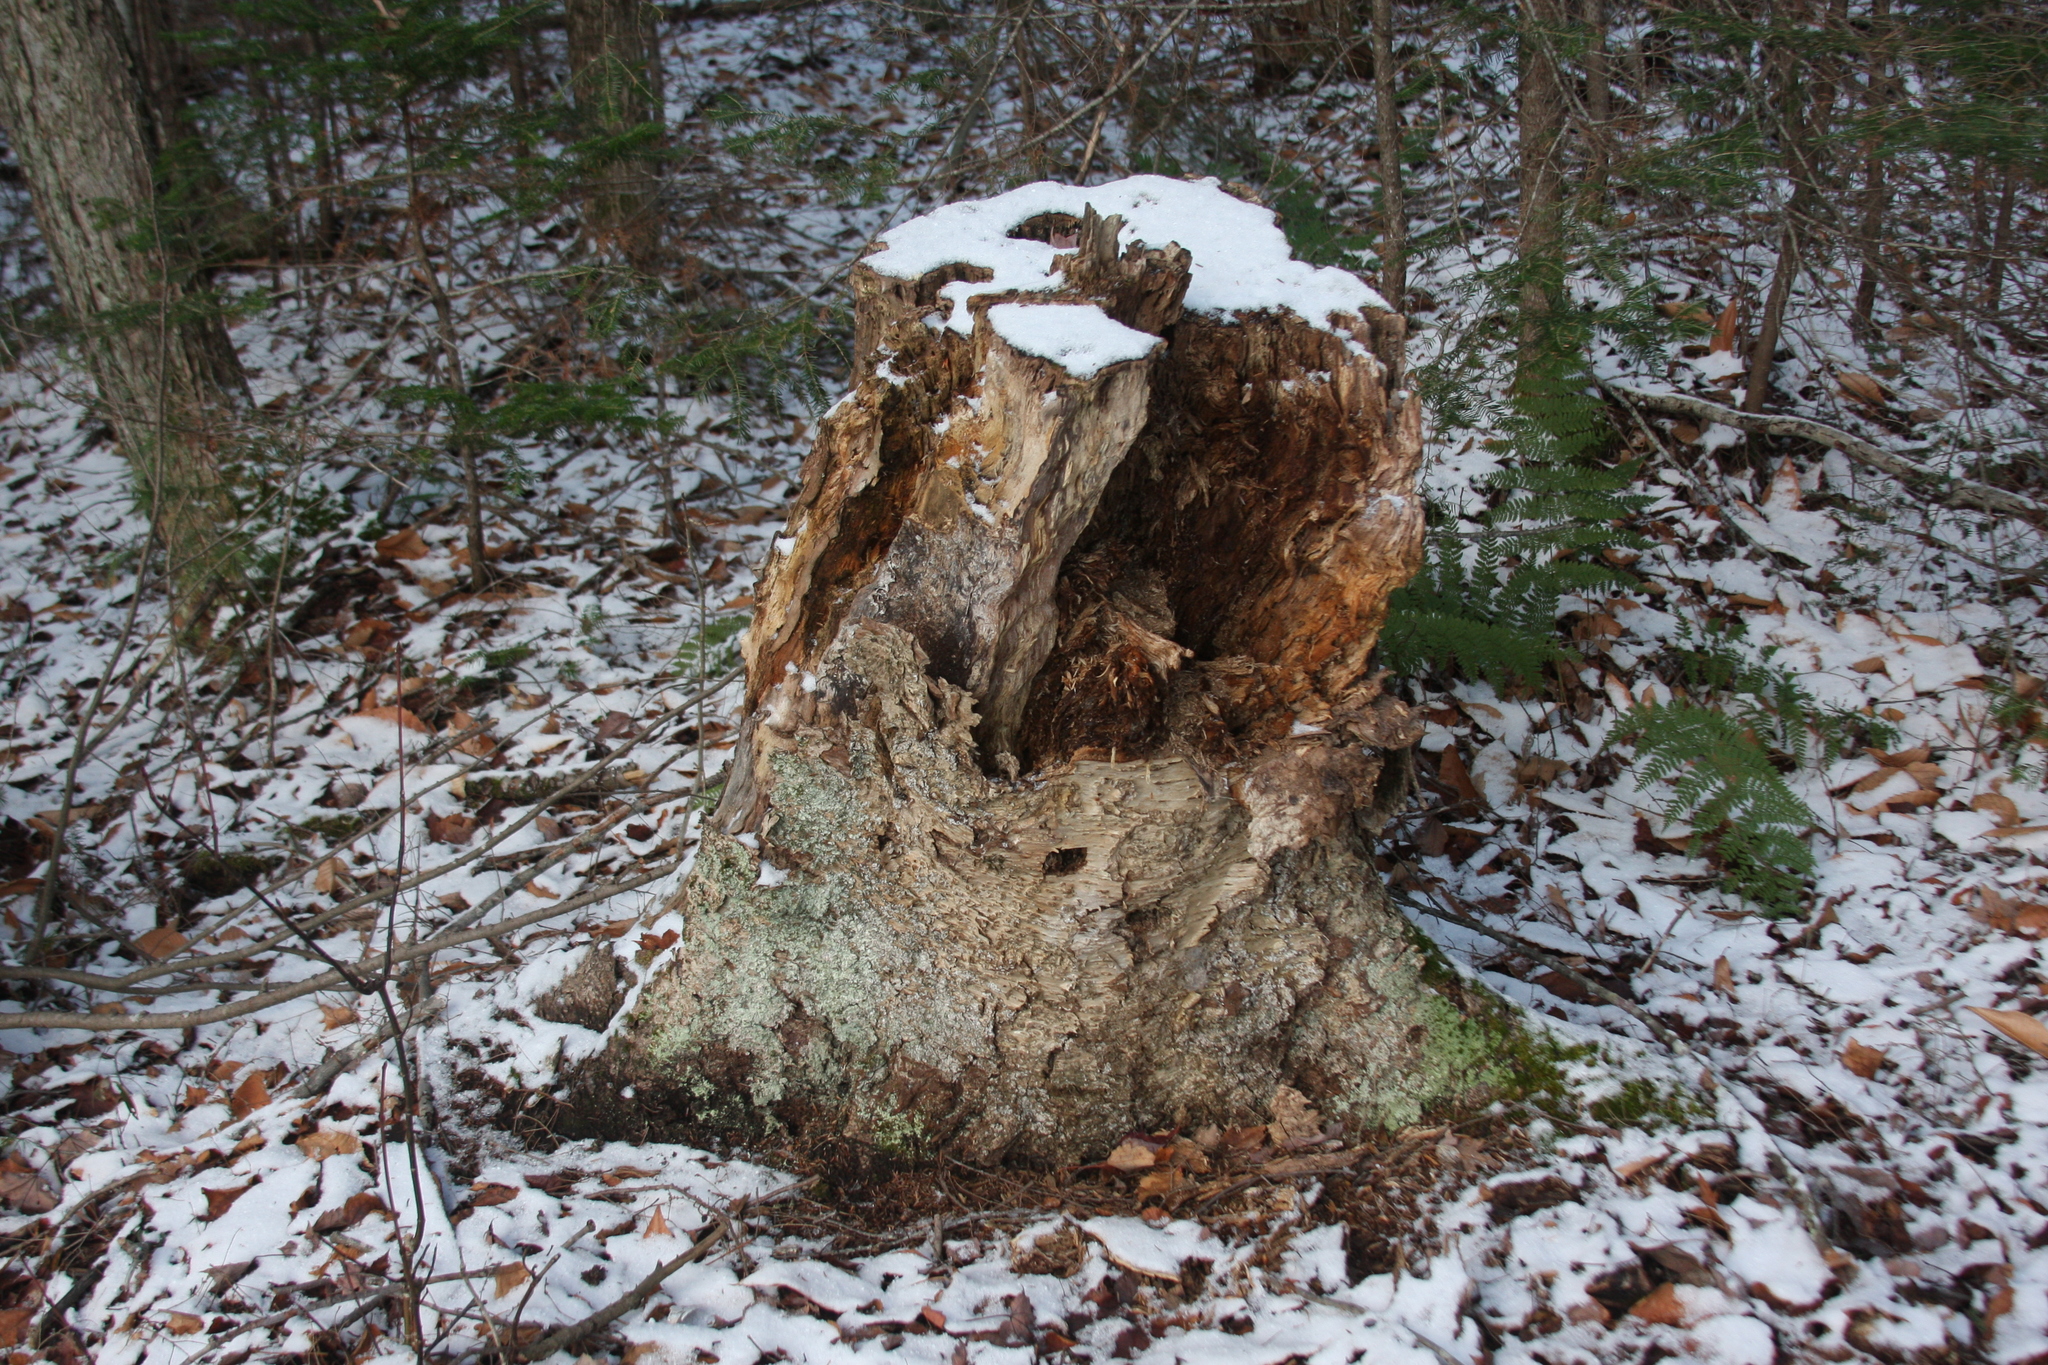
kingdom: Plantae
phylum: Tracheophyta
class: Magnoliopsida
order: Fagales
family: Betulaceae
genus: Betula
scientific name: Betula alleghaniensis
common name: Yellow birch
